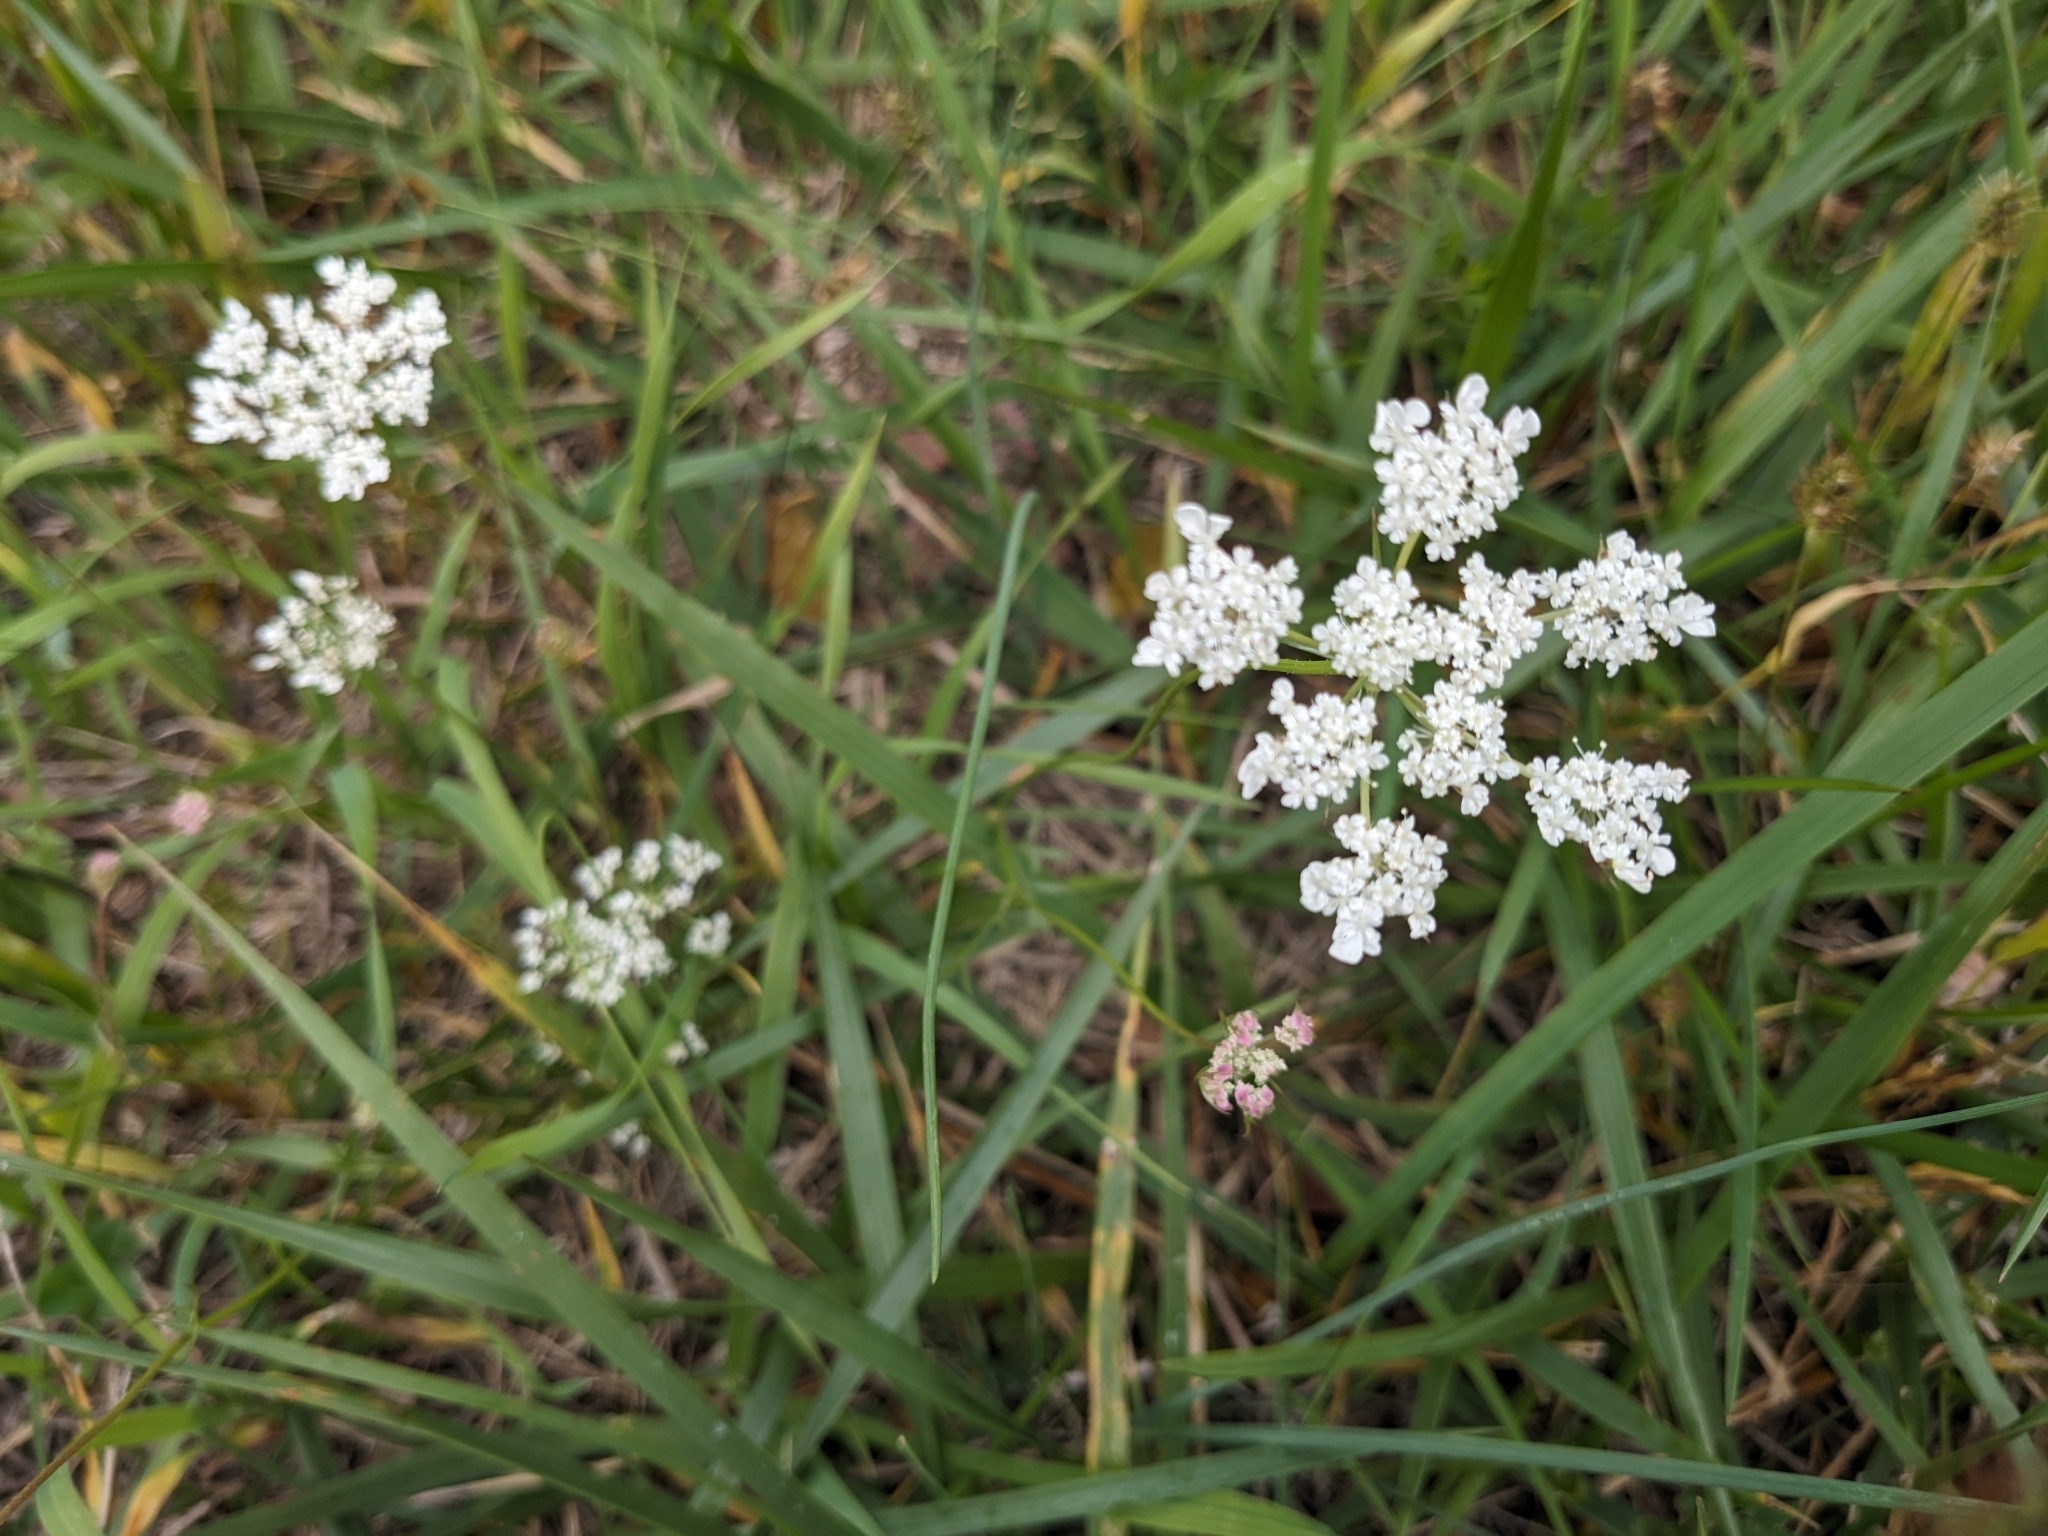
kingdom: Plantae
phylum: Tracheophyta
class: Magnoliopsida
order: Apiales
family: Apiaceae
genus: Daucus
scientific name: Daucus carota
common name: Wild carrot
